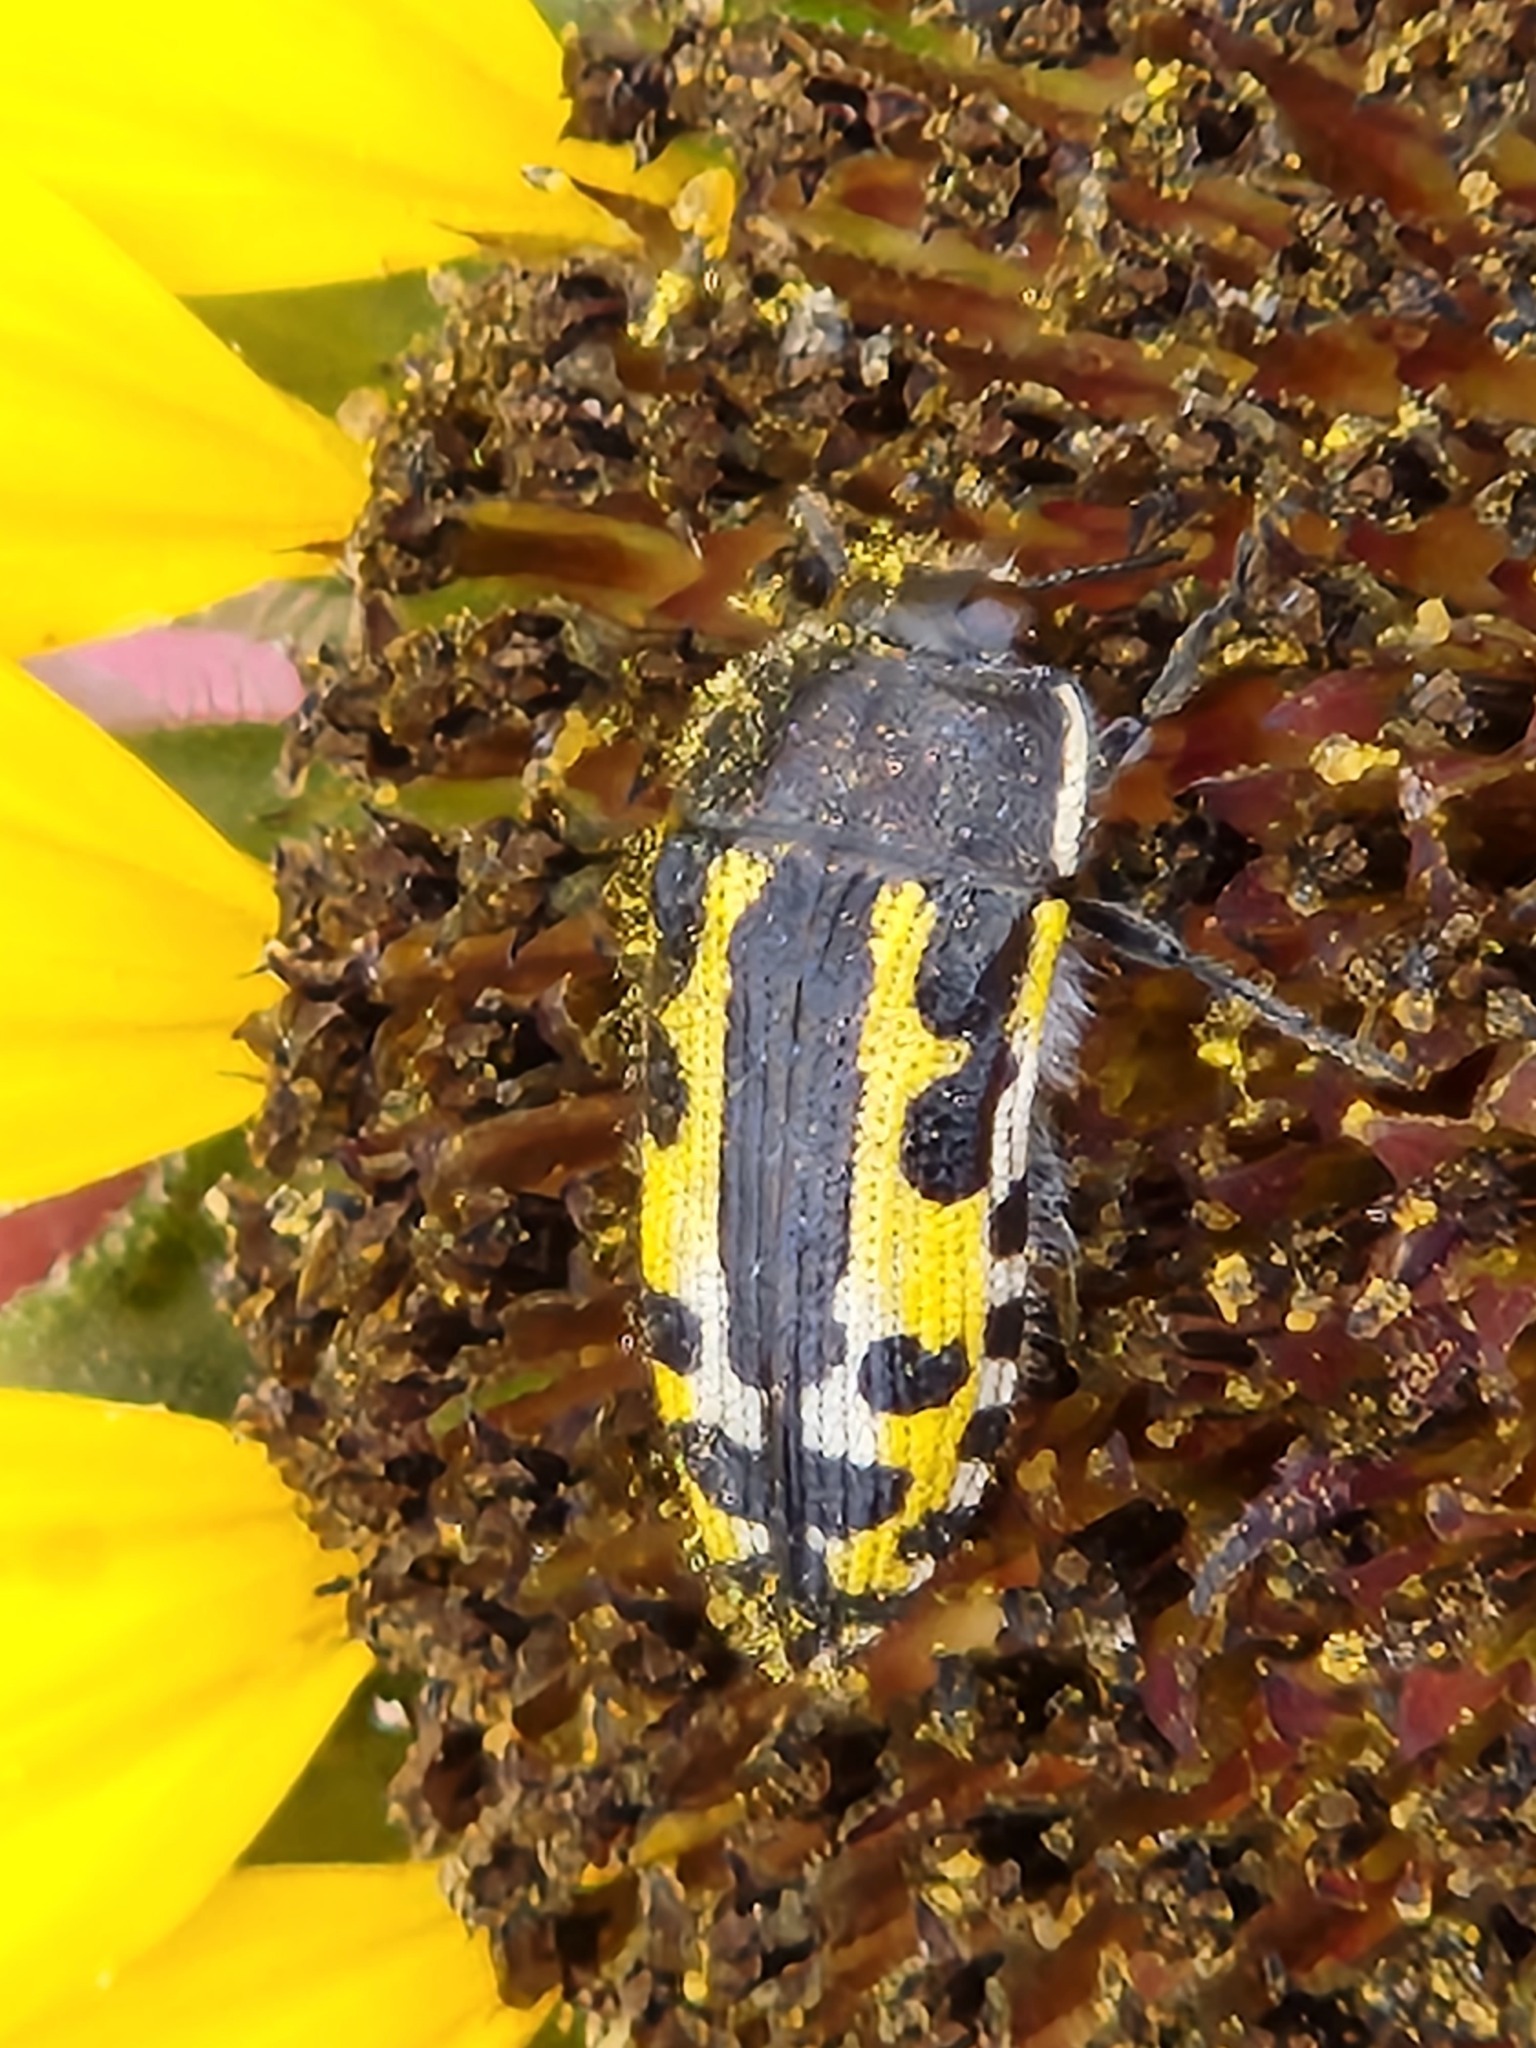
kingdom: Animalia
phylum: Arthropoda
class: Insecta
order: Coleoptera
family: Buprestidae
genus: Acmaeodera
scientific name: Acmaeodera scalaris
